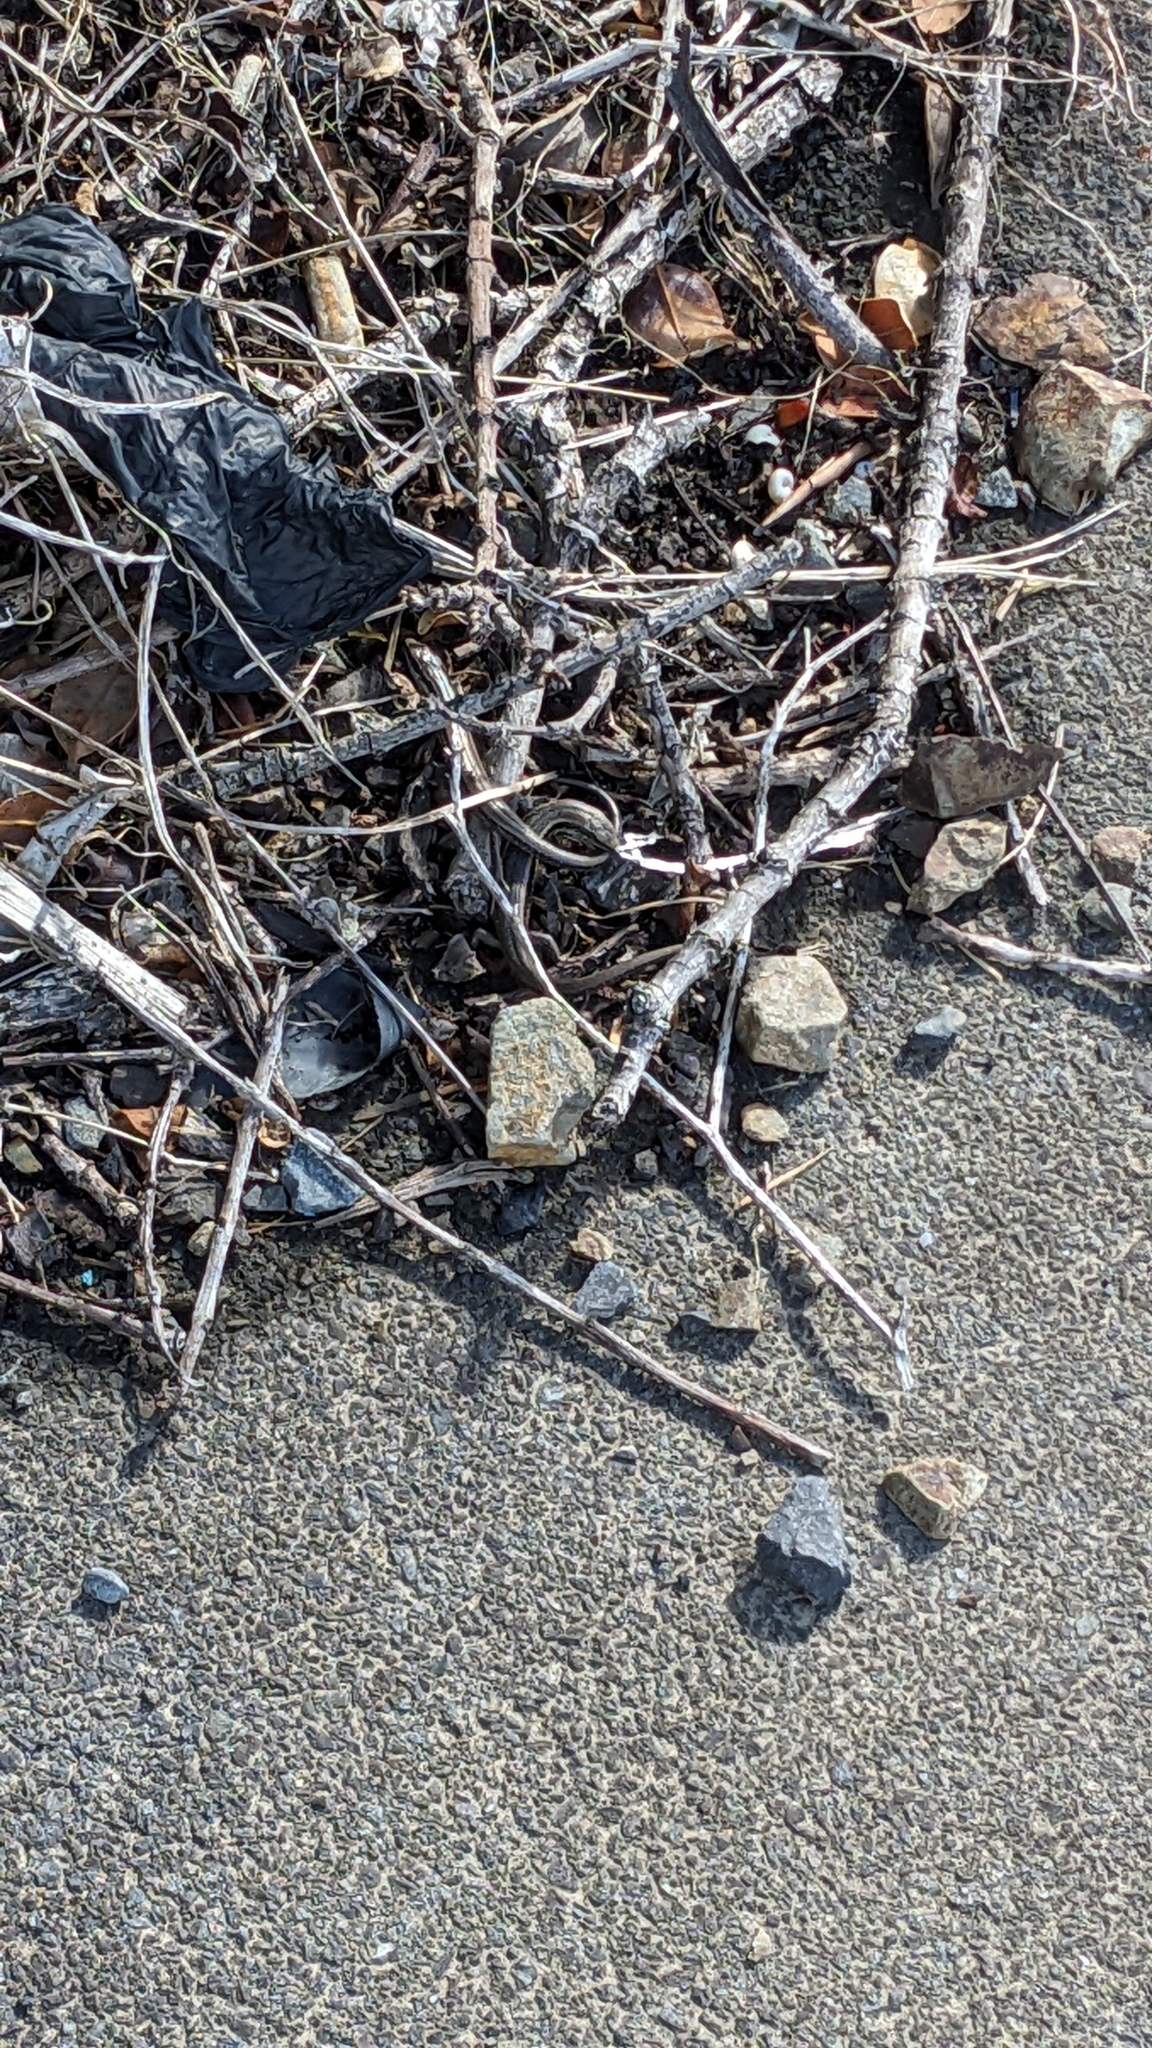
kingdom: Animalia
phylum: Chordata
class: Squamata
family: Scincidae
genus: Oligosoma
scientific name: Oligosoma polychroma
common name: Common new zealand skink
